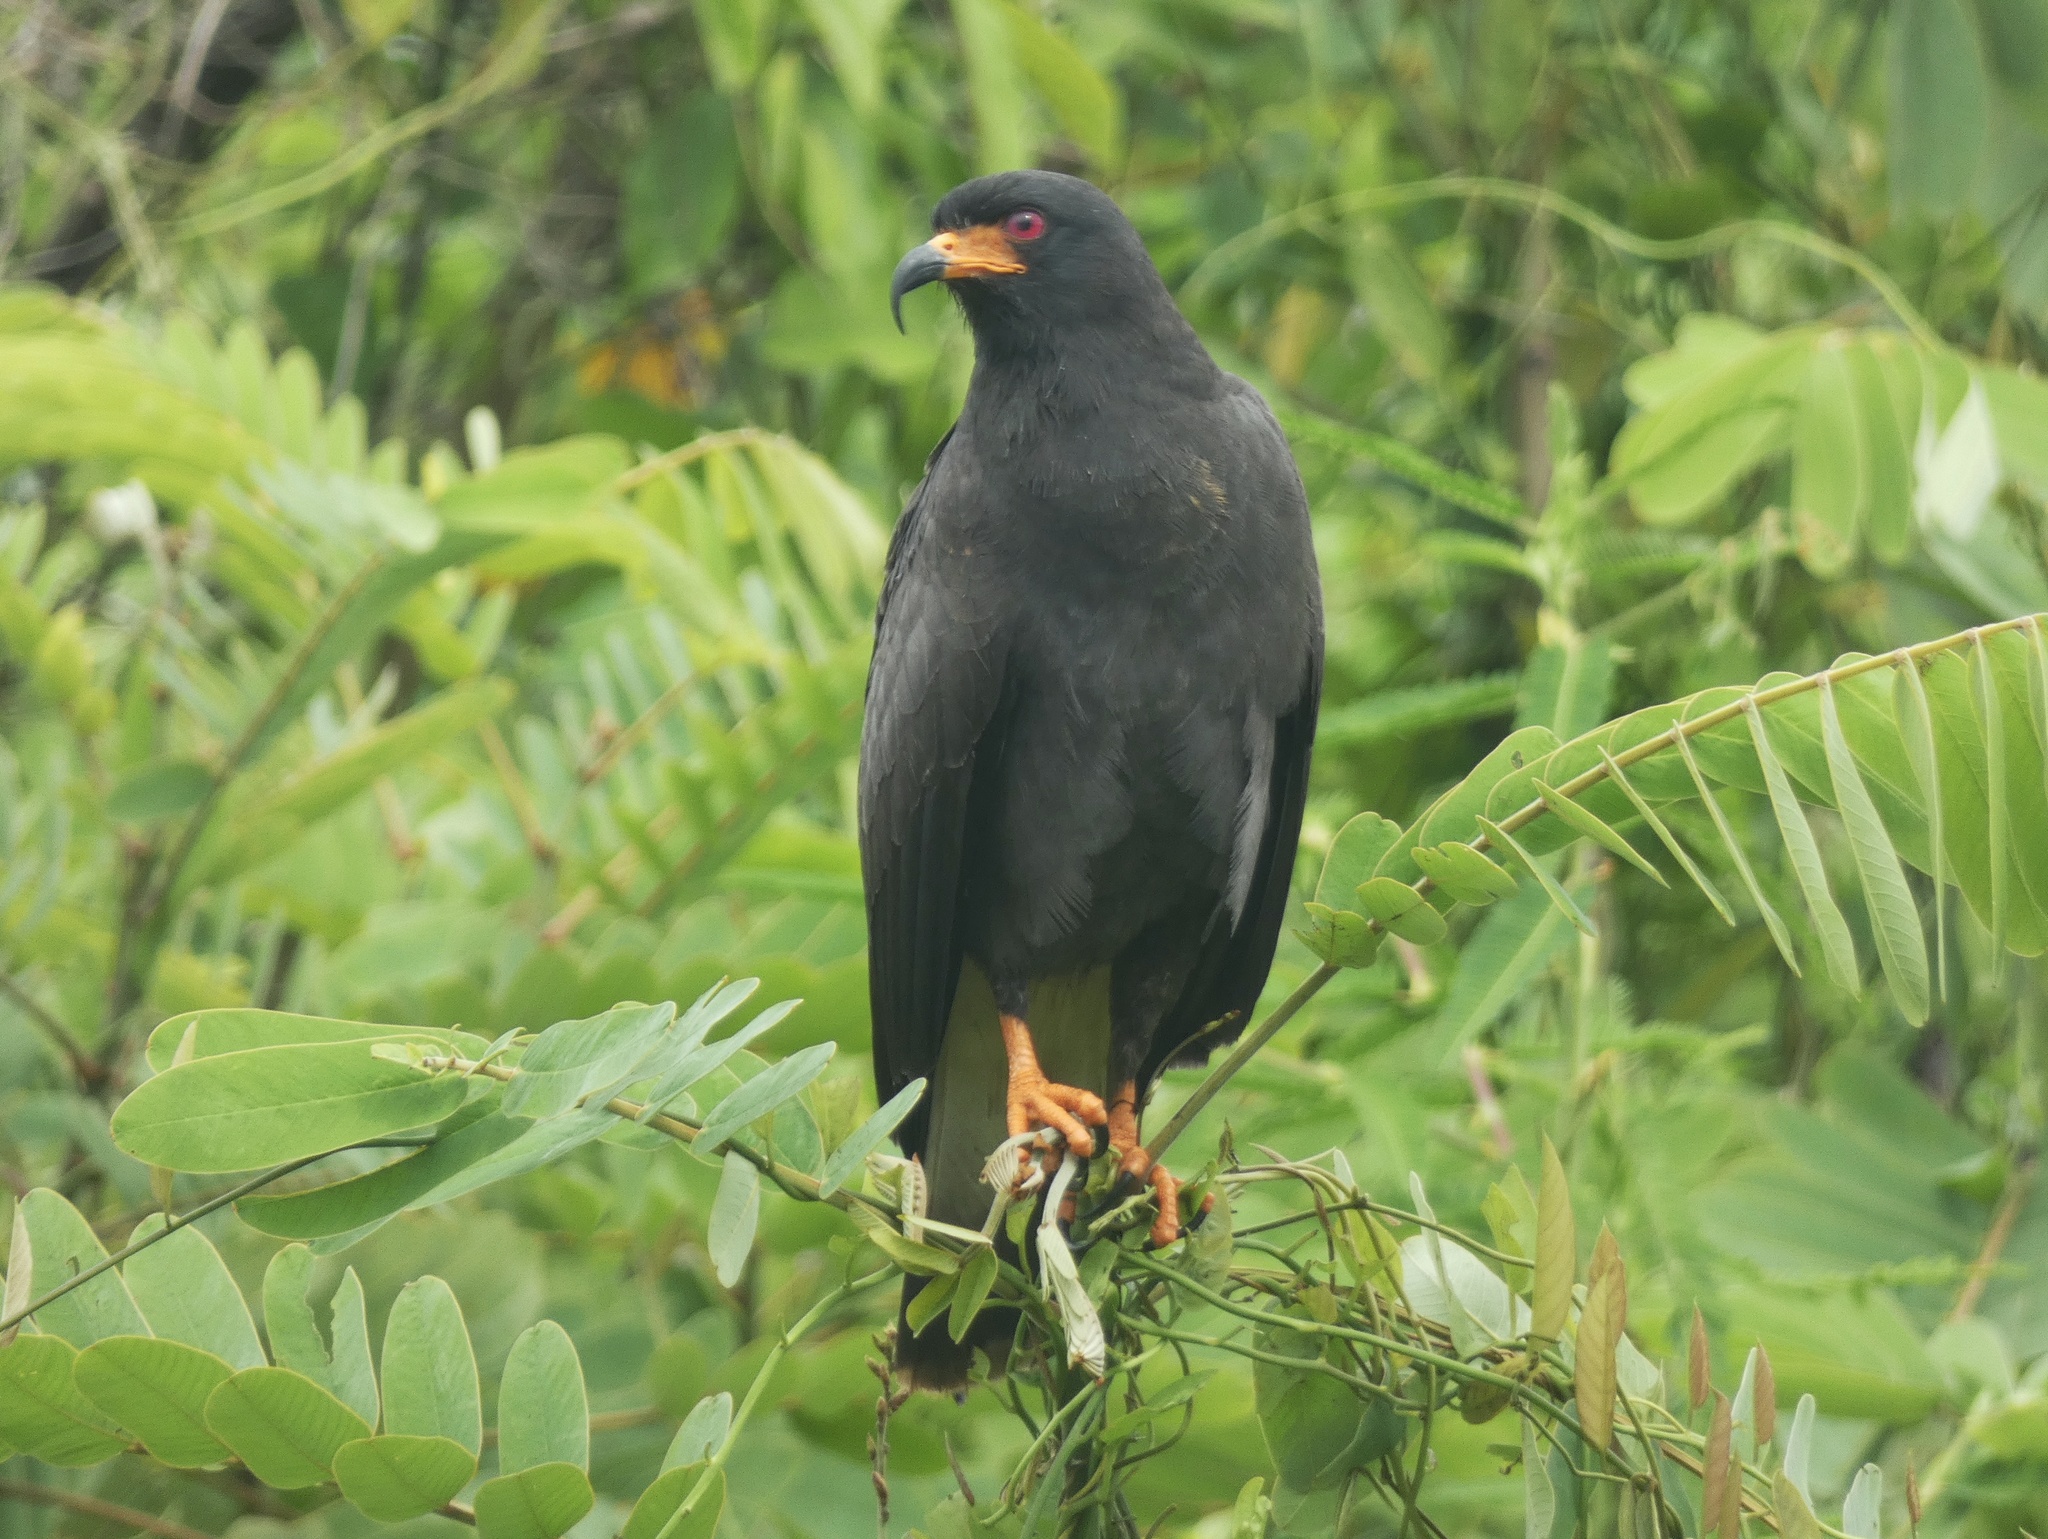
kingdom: Animalia
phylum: Chordata
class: Aves
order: Accipitriformes
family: Accipitridae
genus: Rostrhamus
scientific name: Rostrhamus sociabilis
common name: Snail kite
